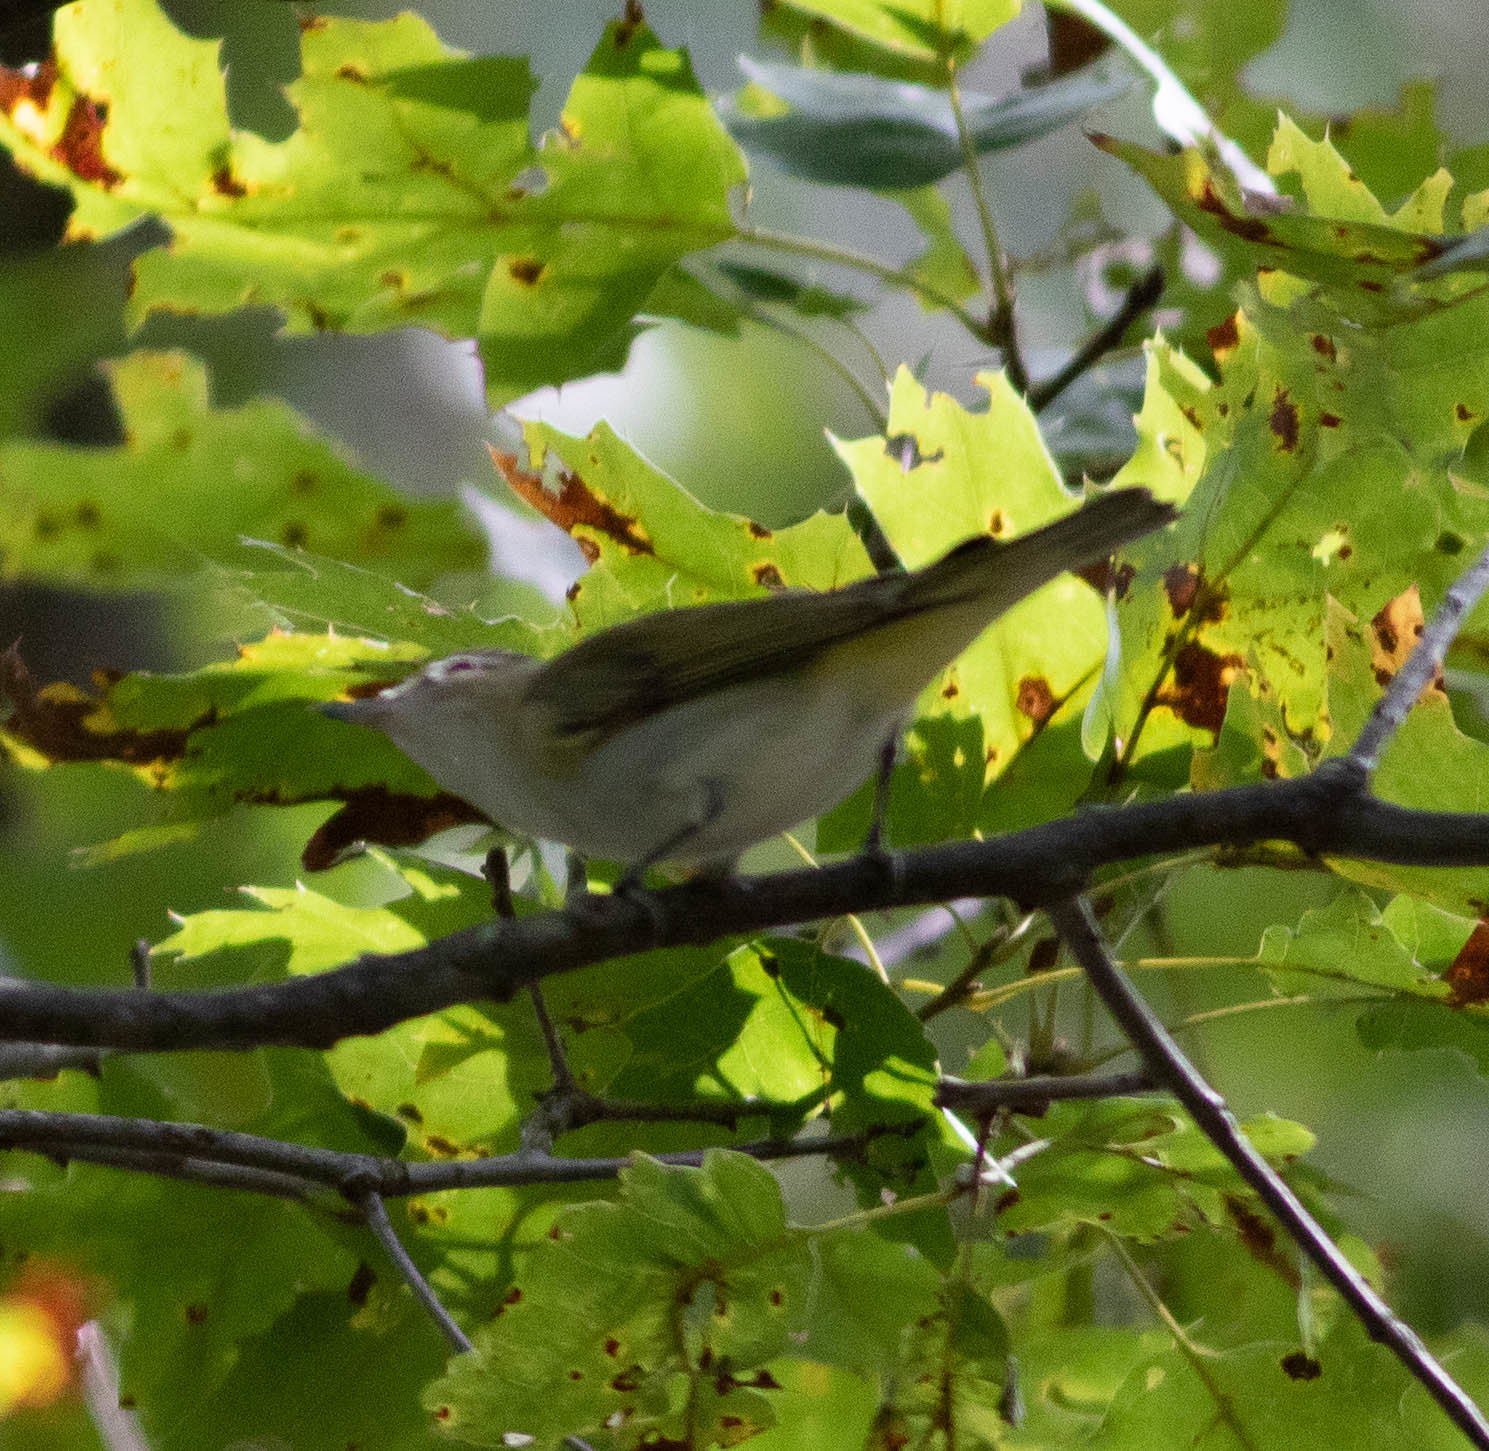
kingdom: Animalia
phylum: Chordata
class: Aves
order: Passeriformes
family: Vireonidae
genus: Vireo
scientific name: Vireo olivaceus
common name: Red-eyed vireo
